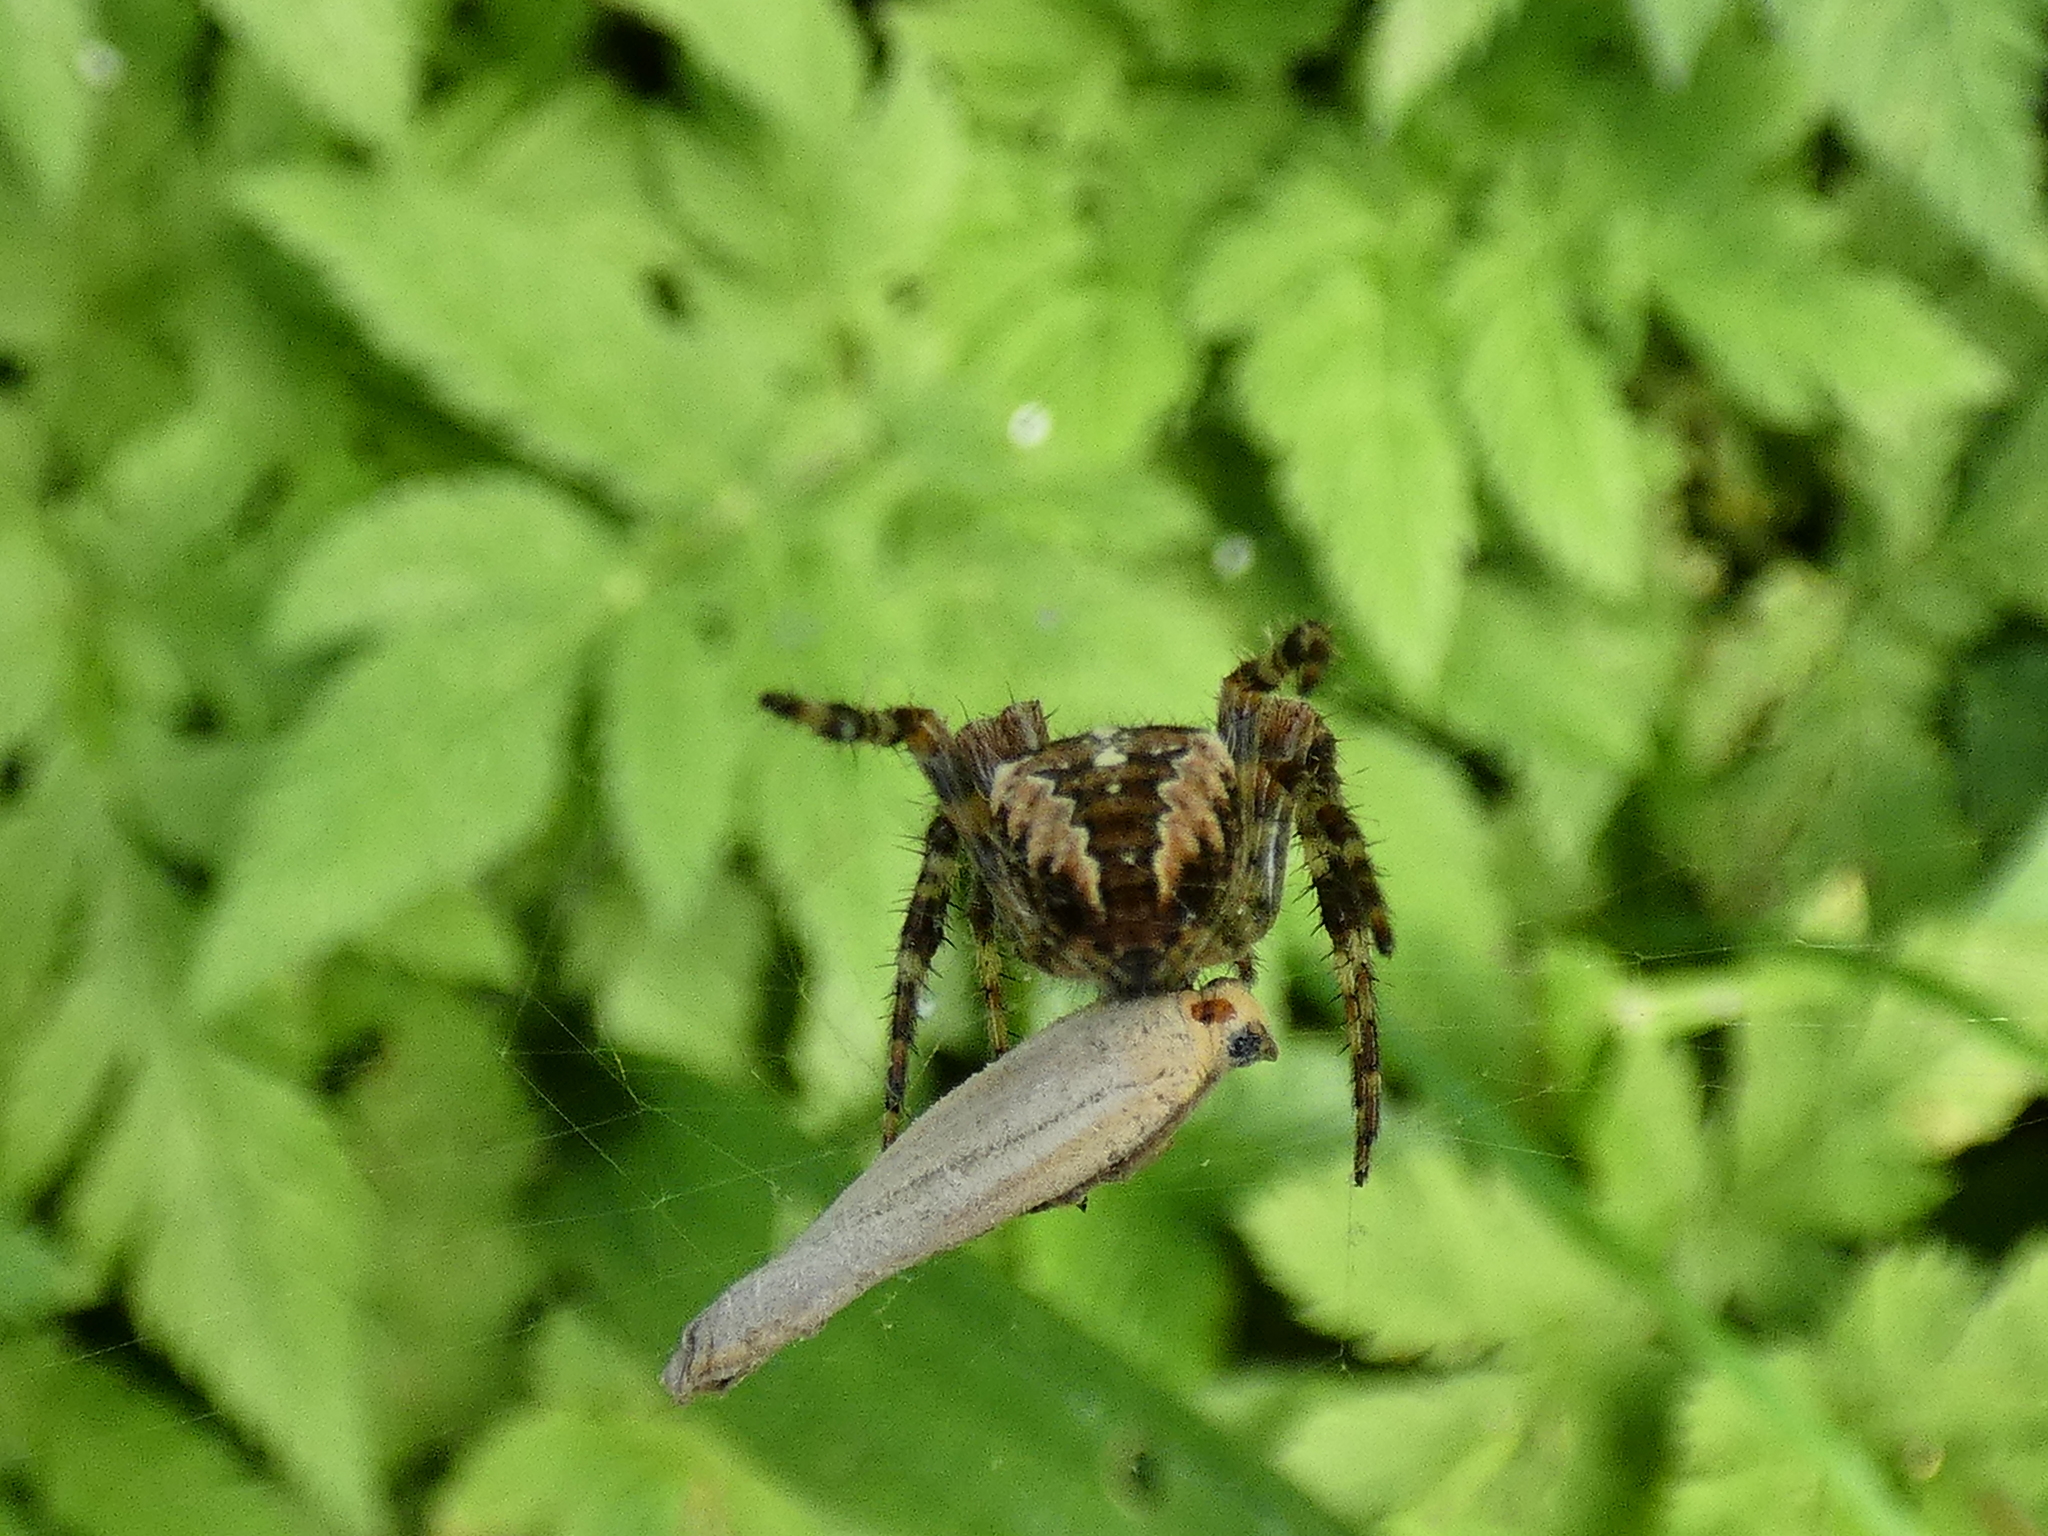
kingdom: Animalia
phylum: Arthropoda
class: Arachnida
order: Araneae
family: Araneidae
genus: Araneus
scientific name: Araneus diadematus
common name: Cross orbweaver
